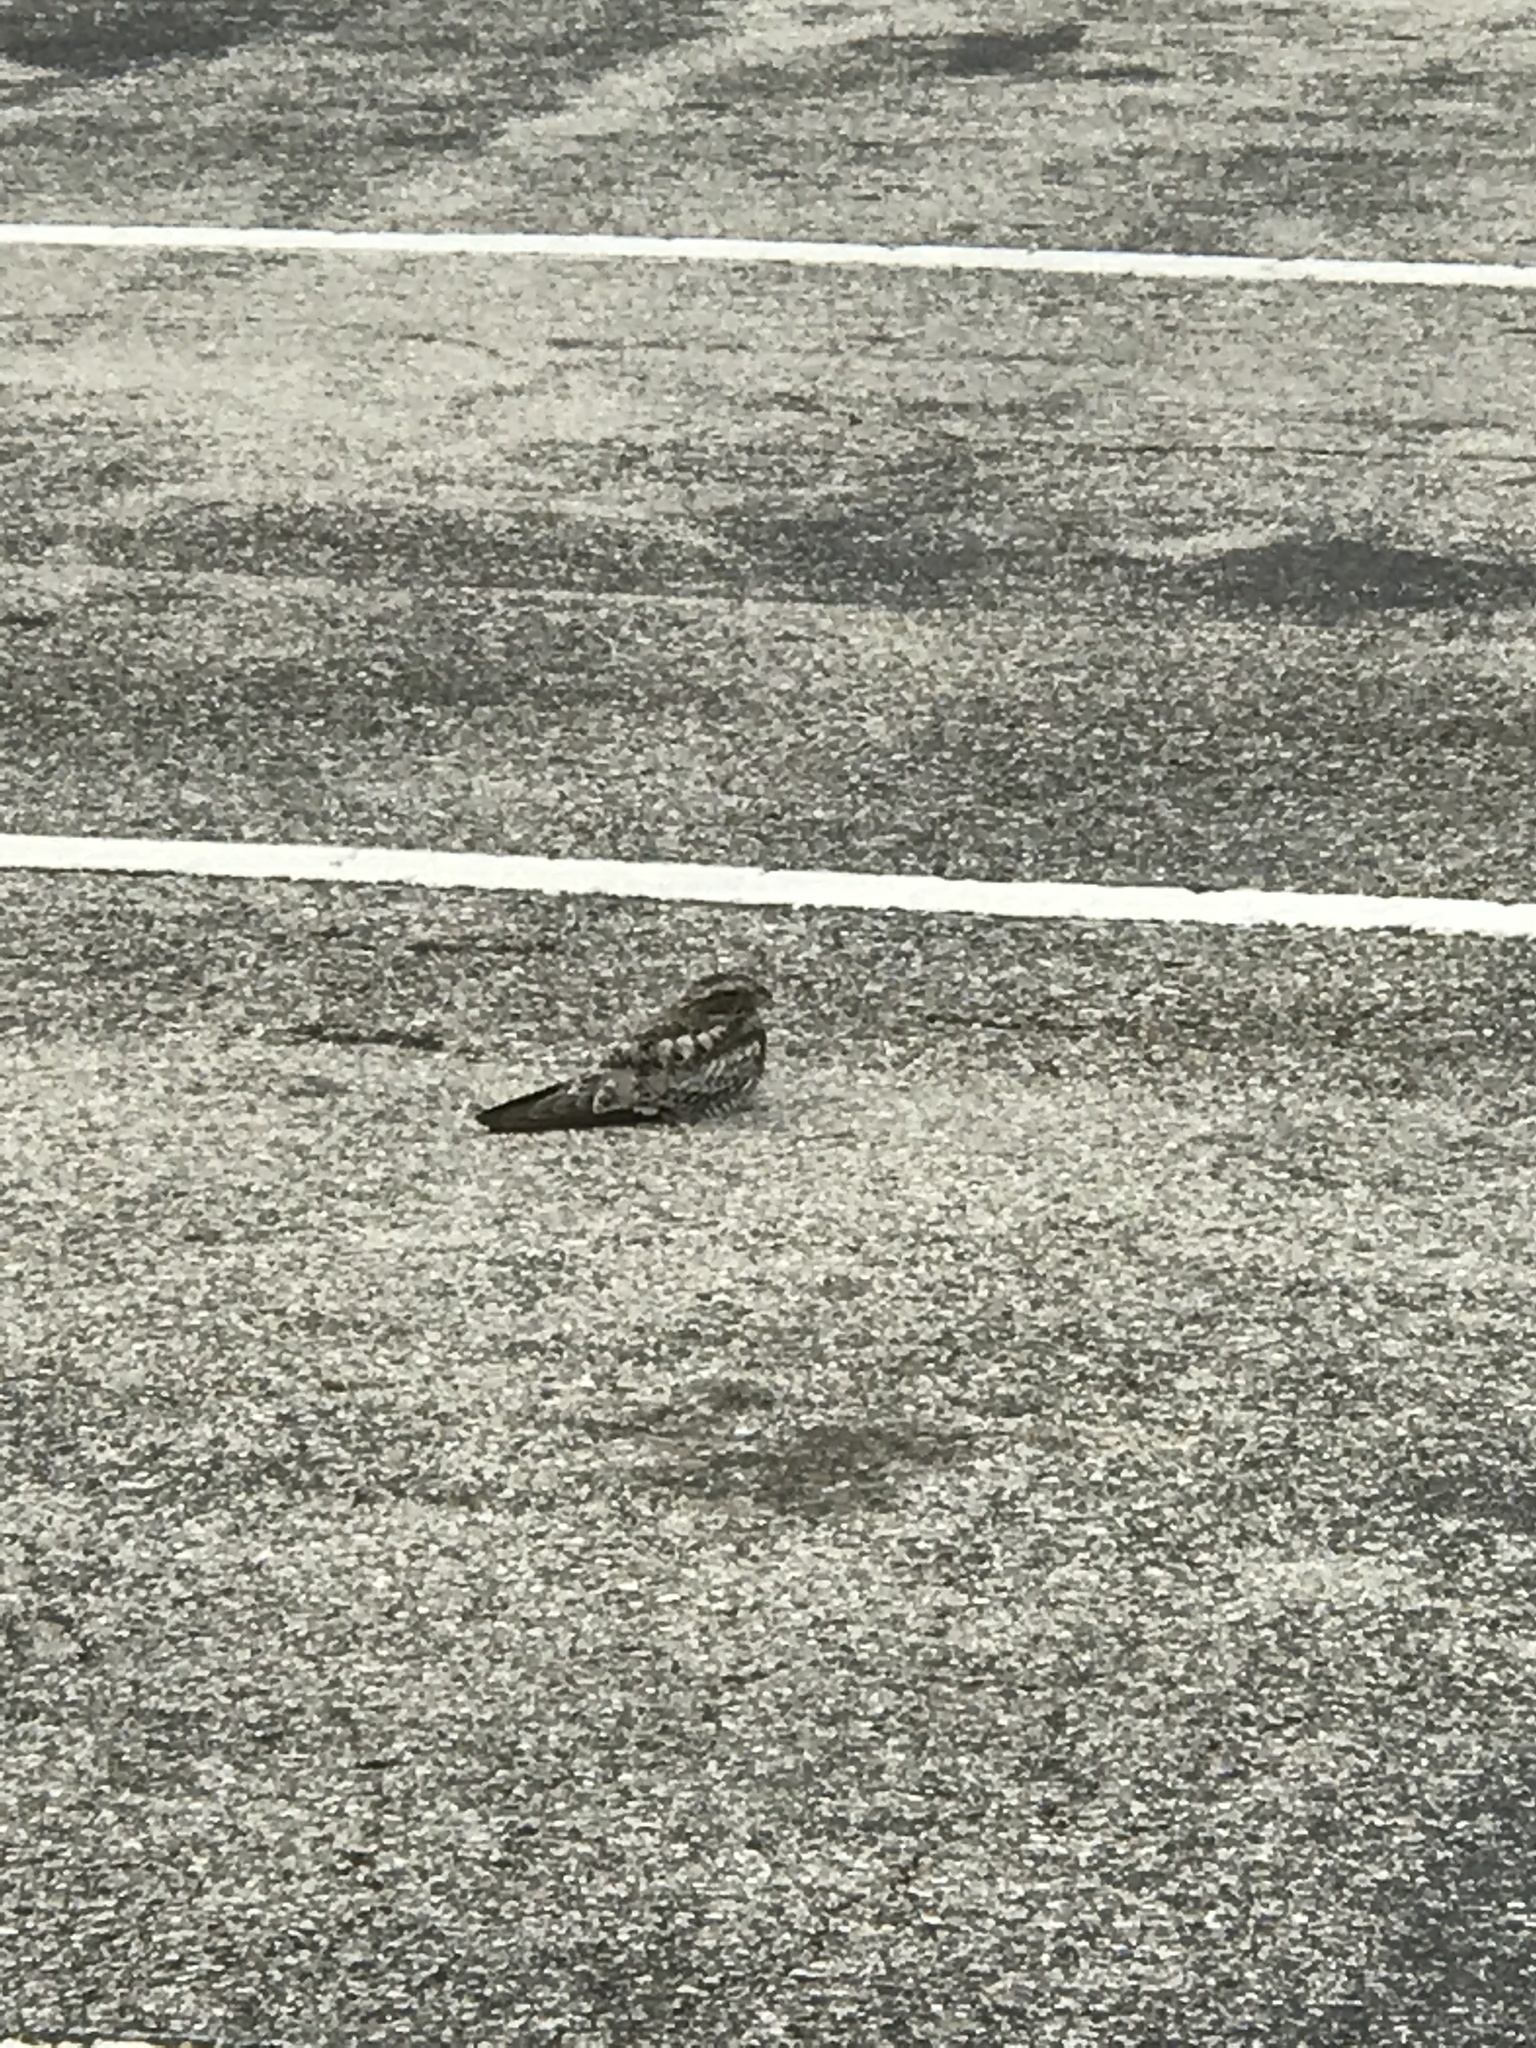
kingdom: Animalia
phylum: Chordata
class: Aves
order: Caprimulgiformes
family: Caprimulgidae
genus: Chordeiles
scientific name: Chordeiles minor
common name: Common nighthawk
